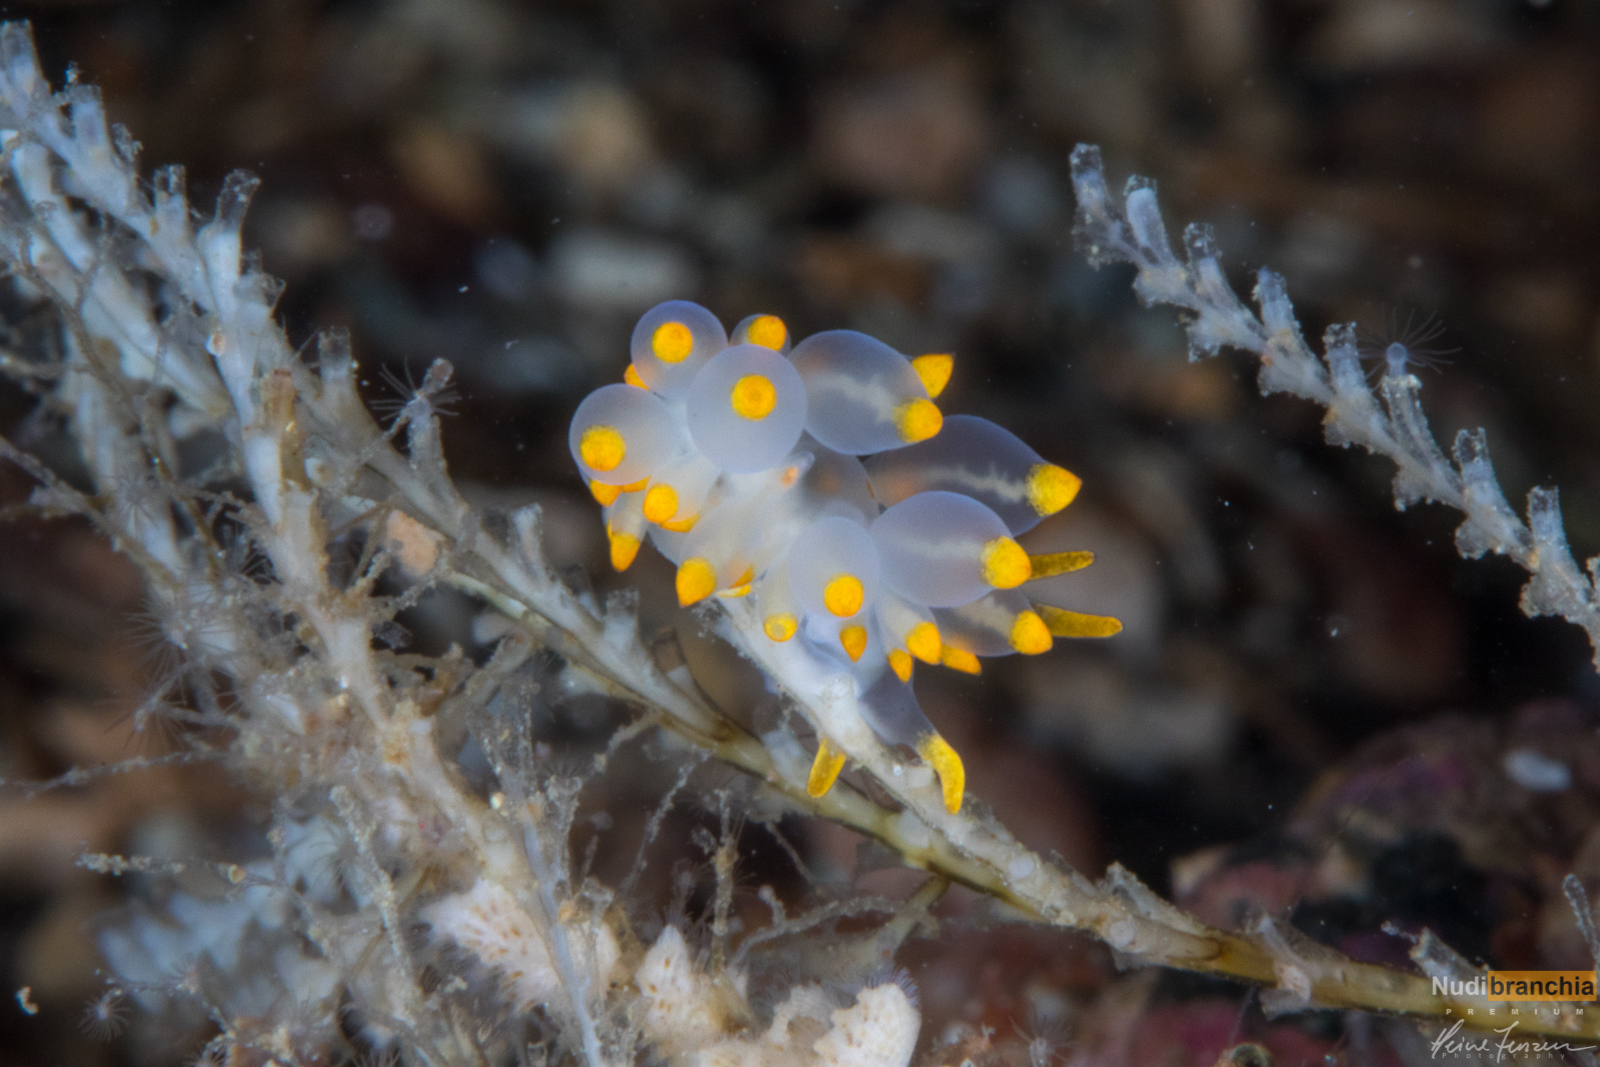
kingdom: Animalia
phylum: Mollusca
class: Gastropoda
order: Nudibranchia
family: Eubranchidae
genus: Amphorina
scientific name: Amphorina farrani
